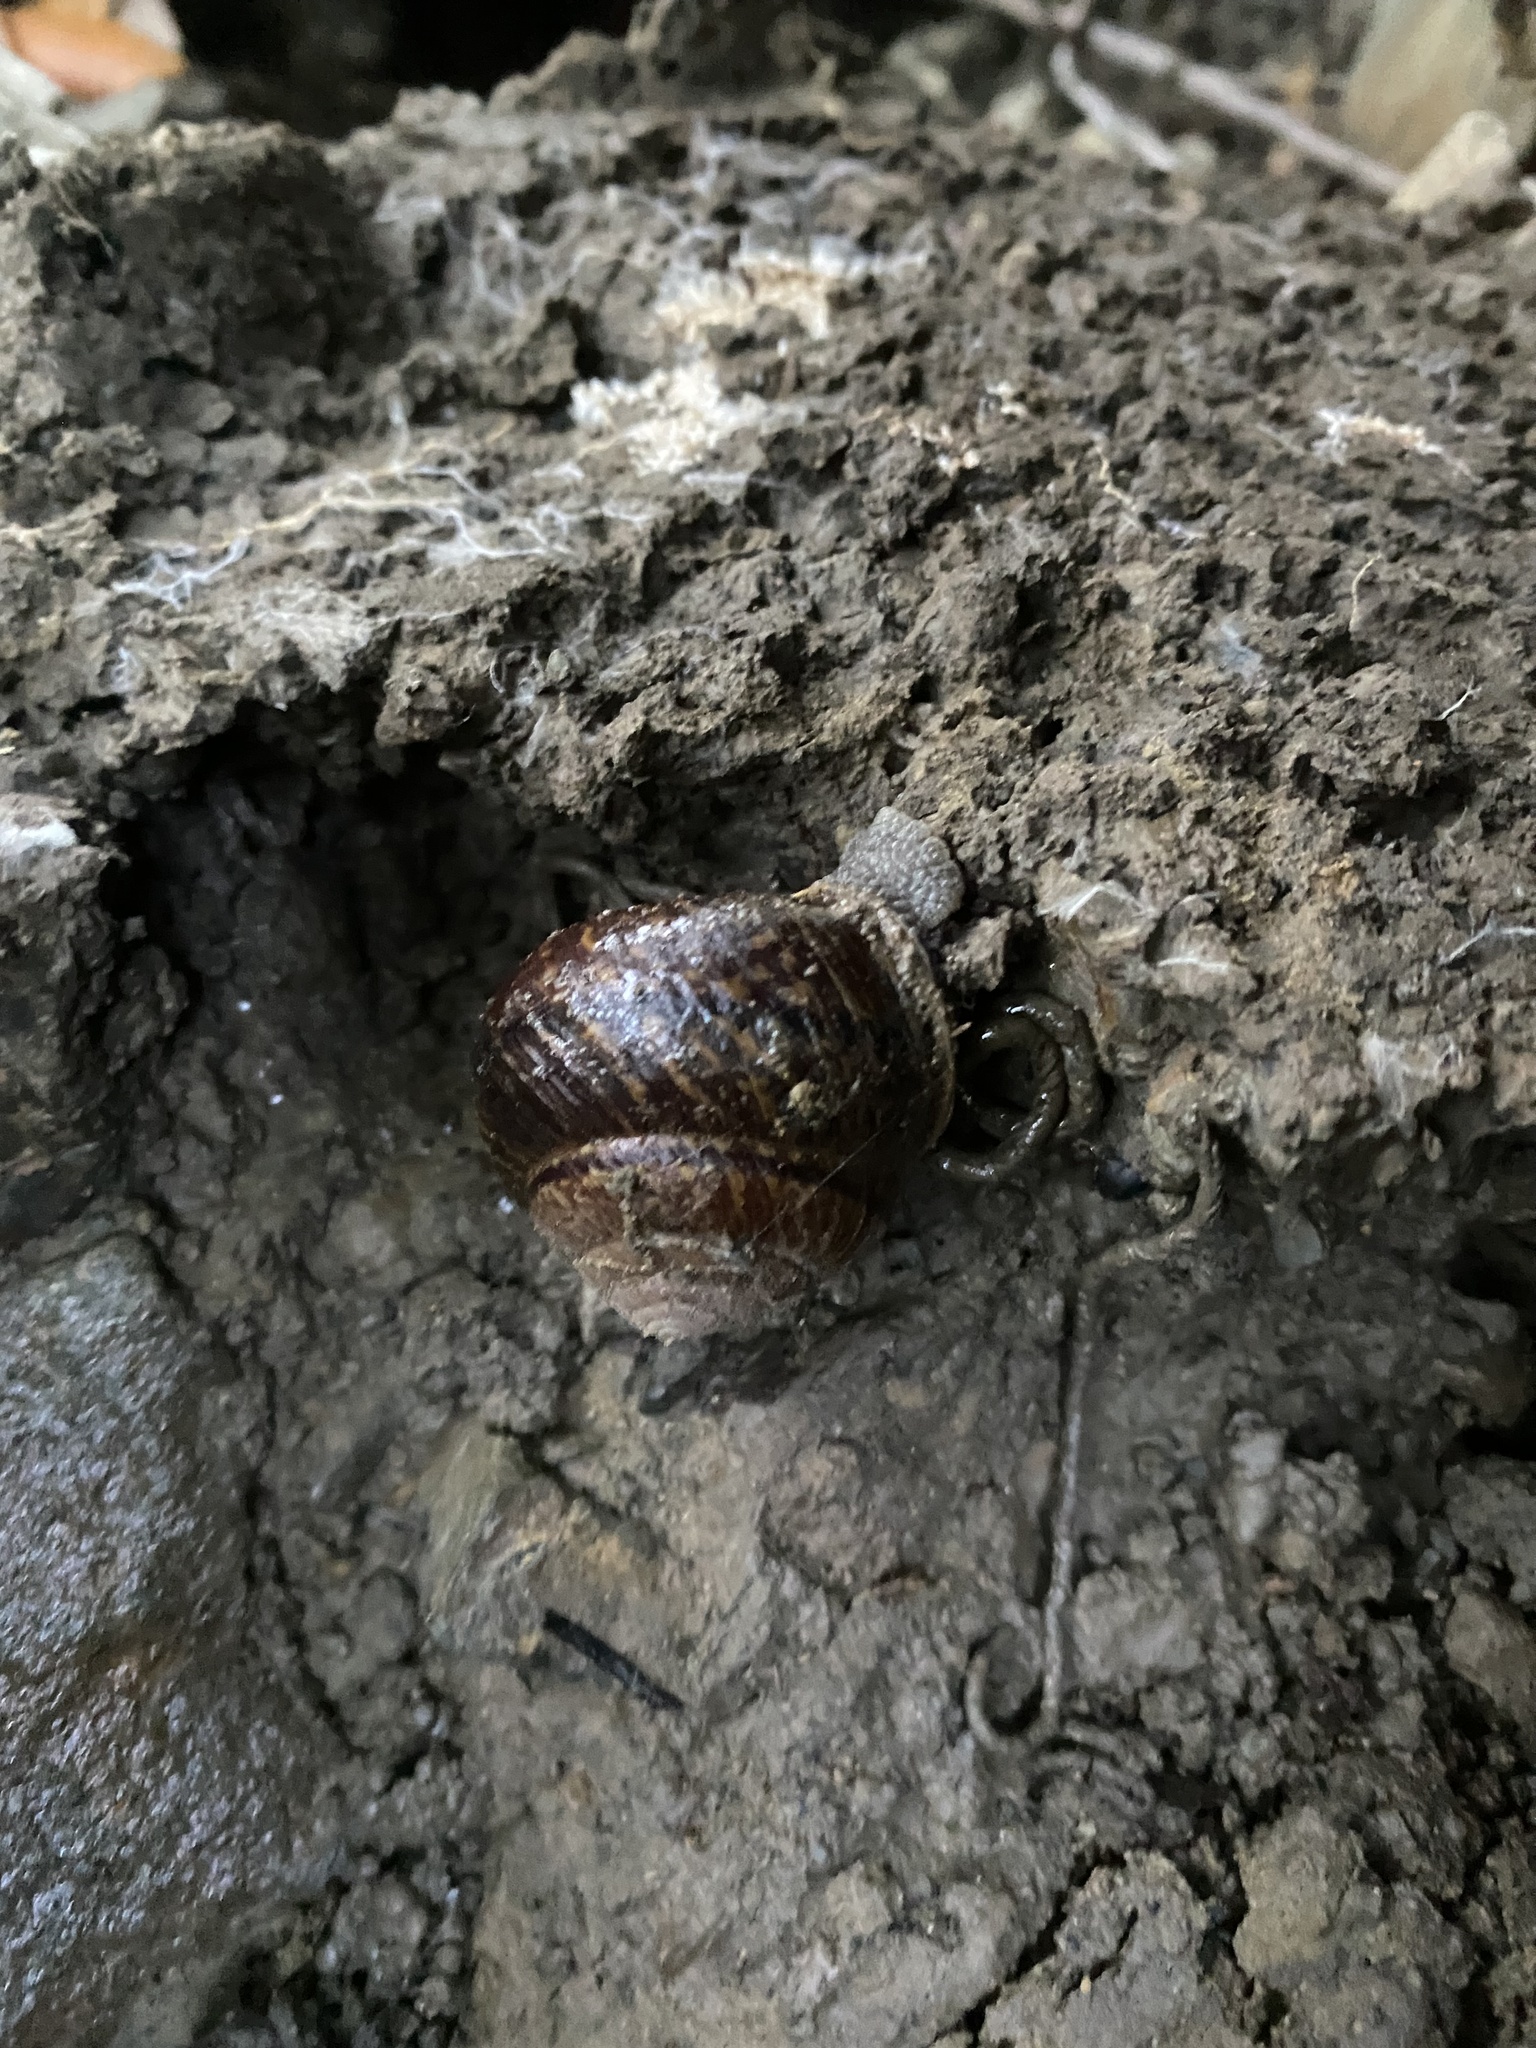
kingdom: Animalia
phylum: Mollusca
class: Gastropoda
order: Stylommatophora
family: Xanthonychidae
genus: Helminthoglypta
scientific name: Helminthoglypta arrosa
